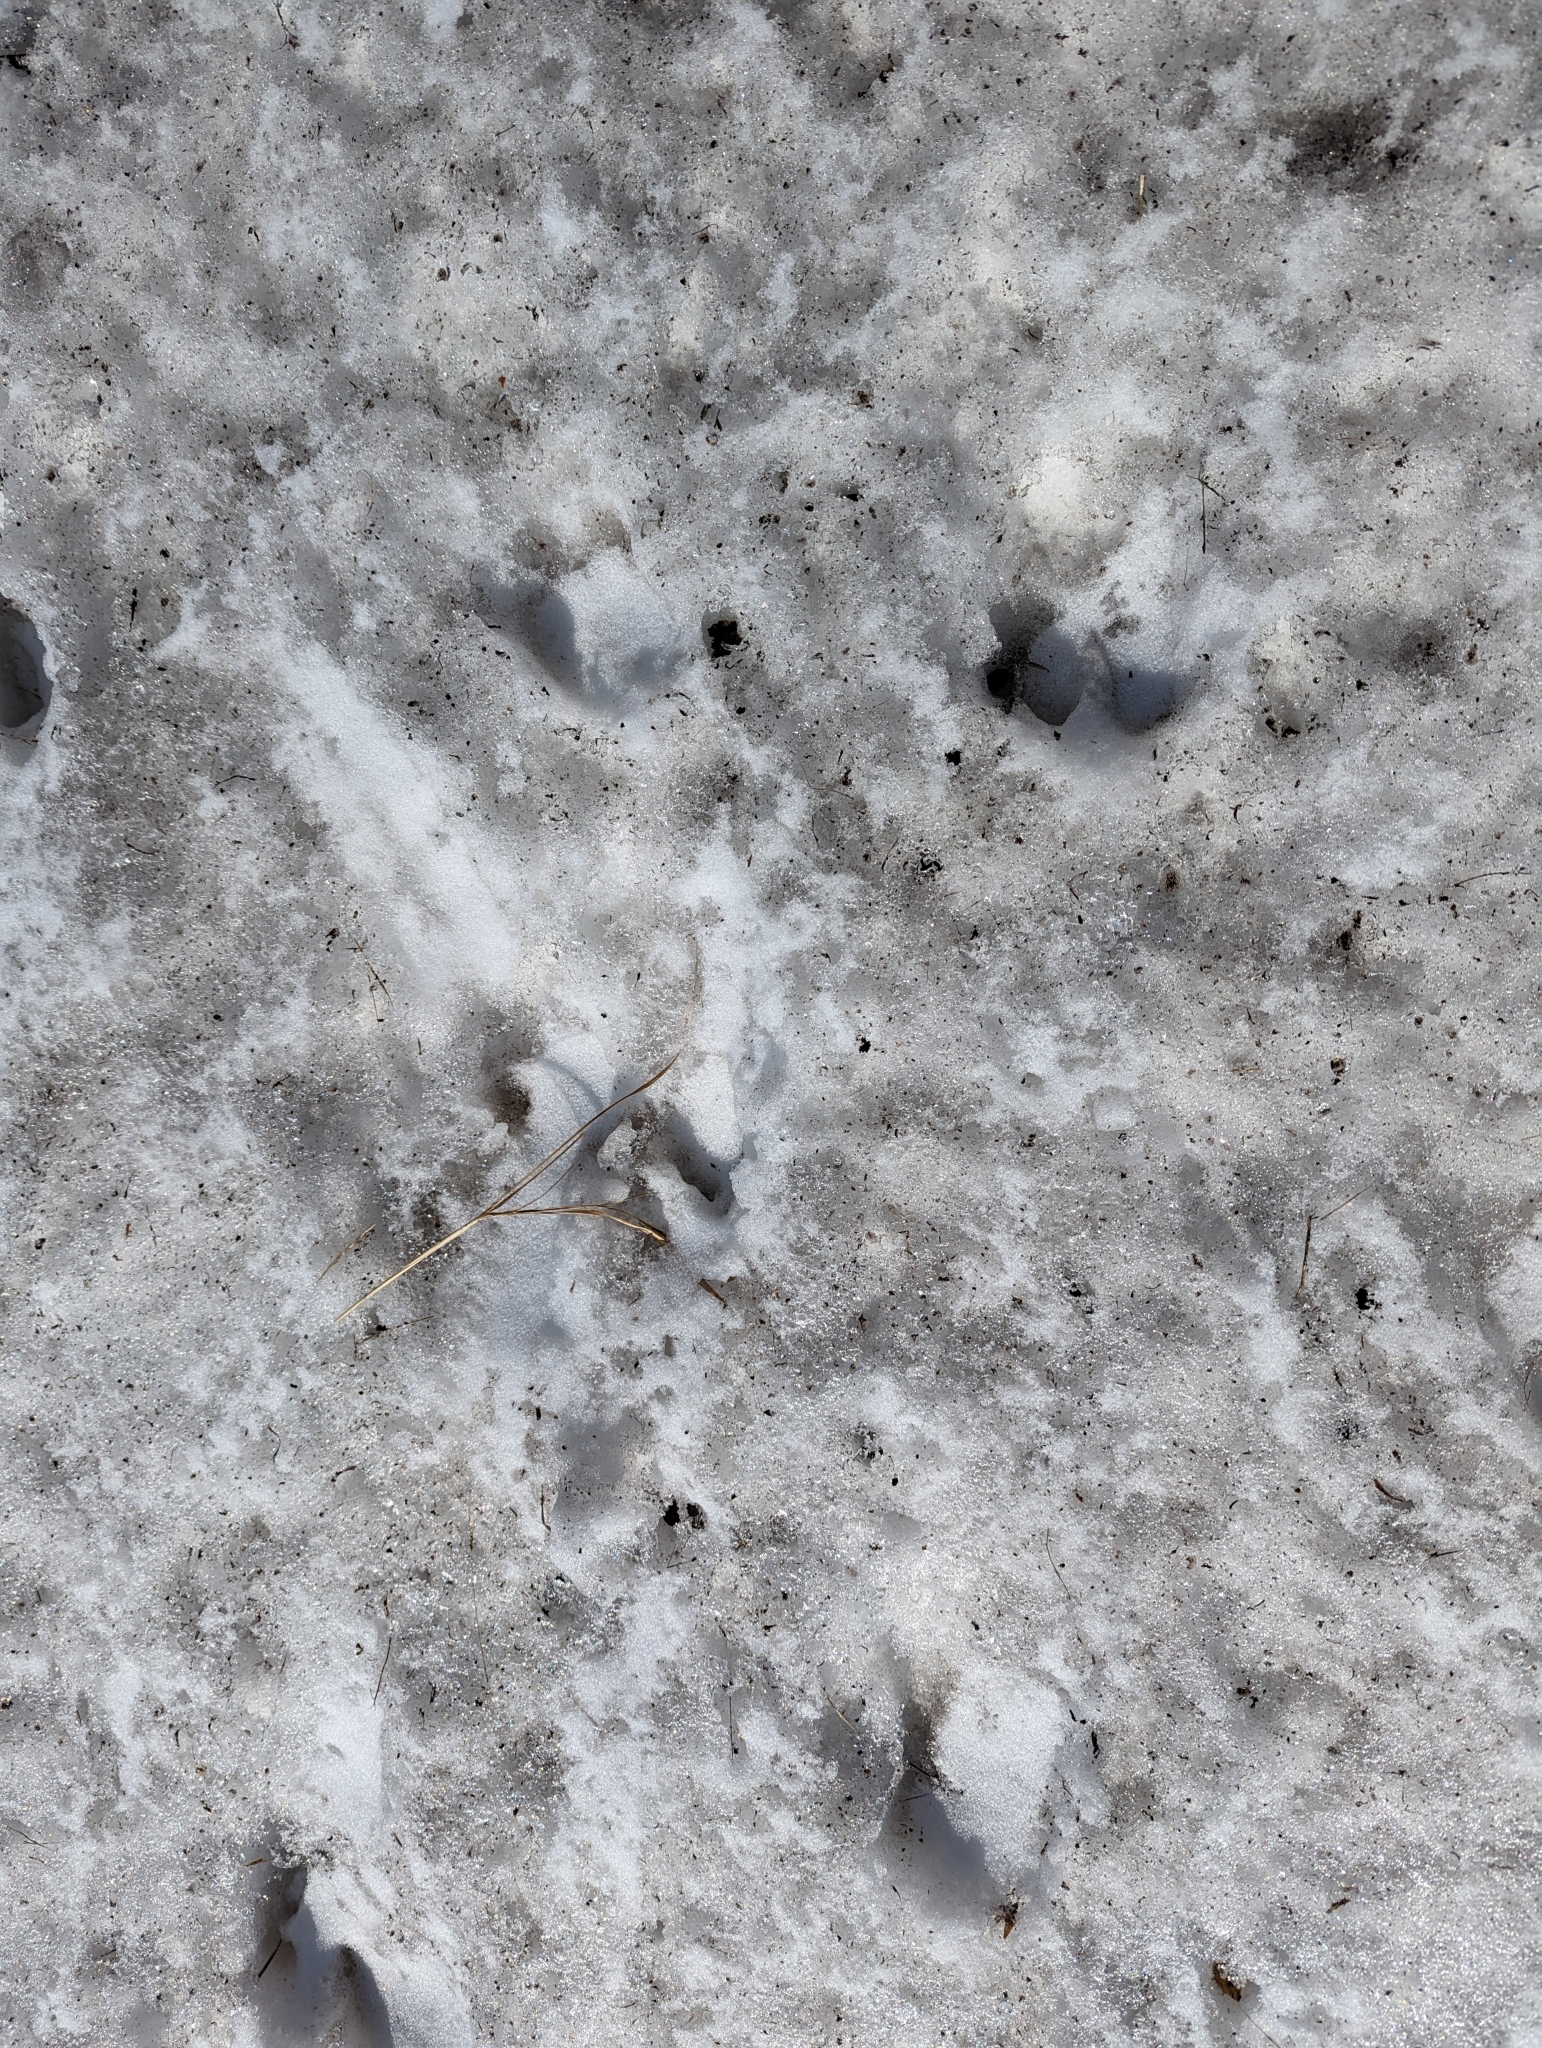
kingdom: Animalia
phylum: Chordata
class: Mammalia
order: Artiodactyla
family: Bovidae
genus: Ovis
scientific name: Ovis dalli
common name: Dall's sheep
